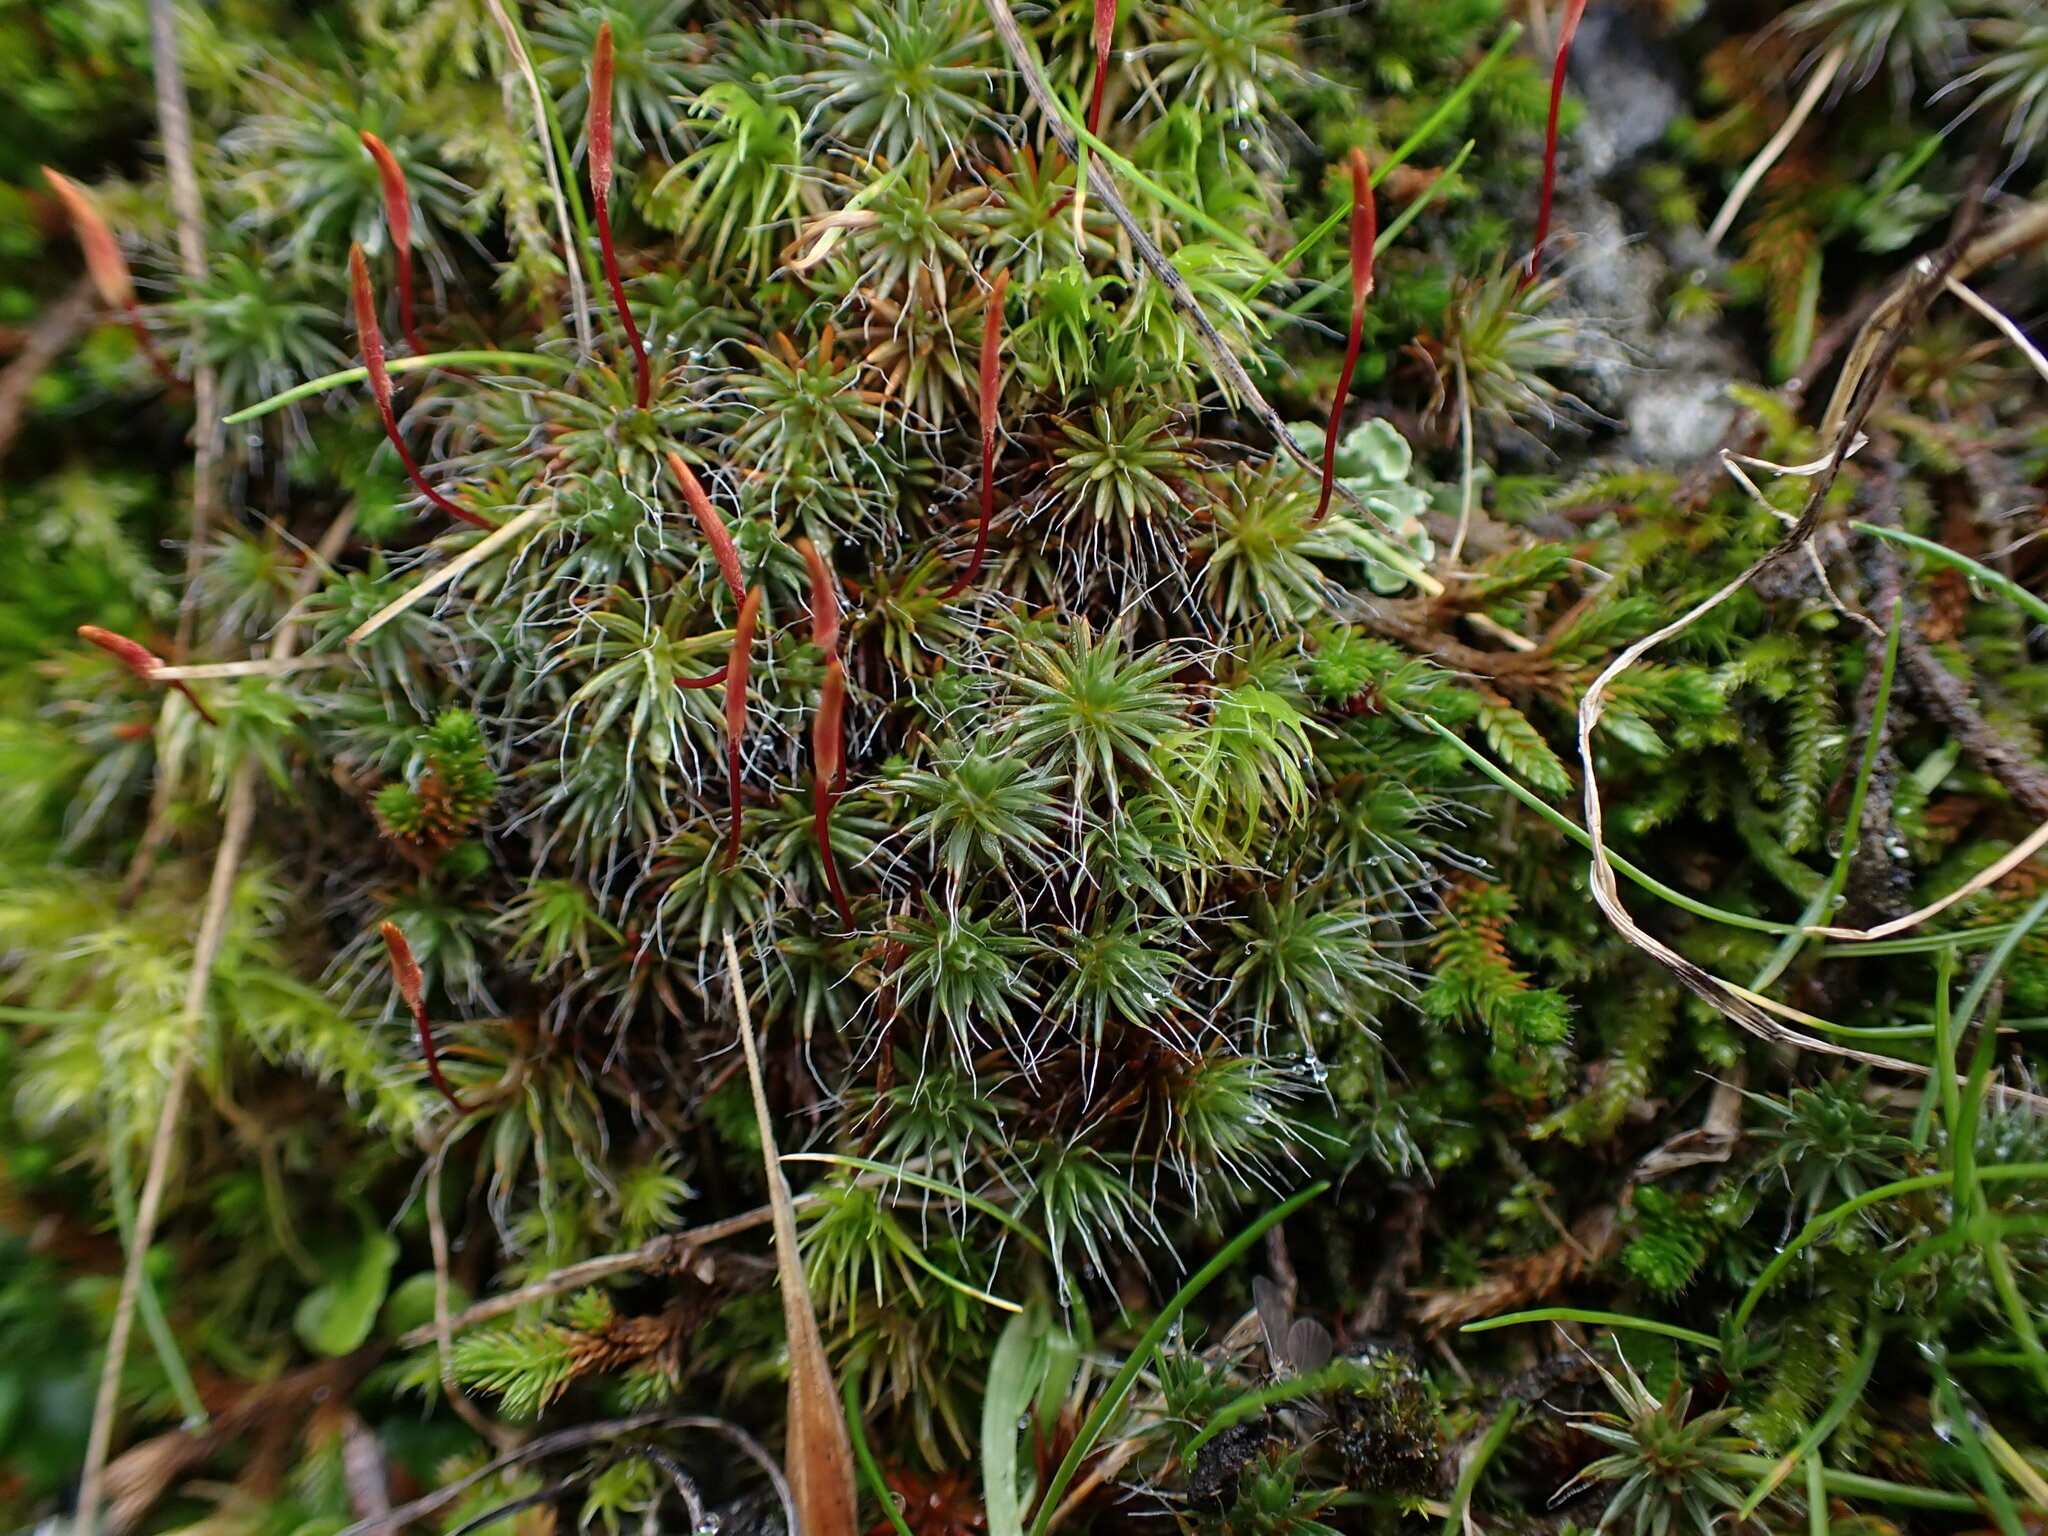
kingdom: Plantae
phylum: Bryophyta
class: Polytrichopsida
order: Polytrichales
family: Polytrichaceae
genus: Polytrichum
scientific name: Polytrichum piliferum
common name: Bristly haircap
